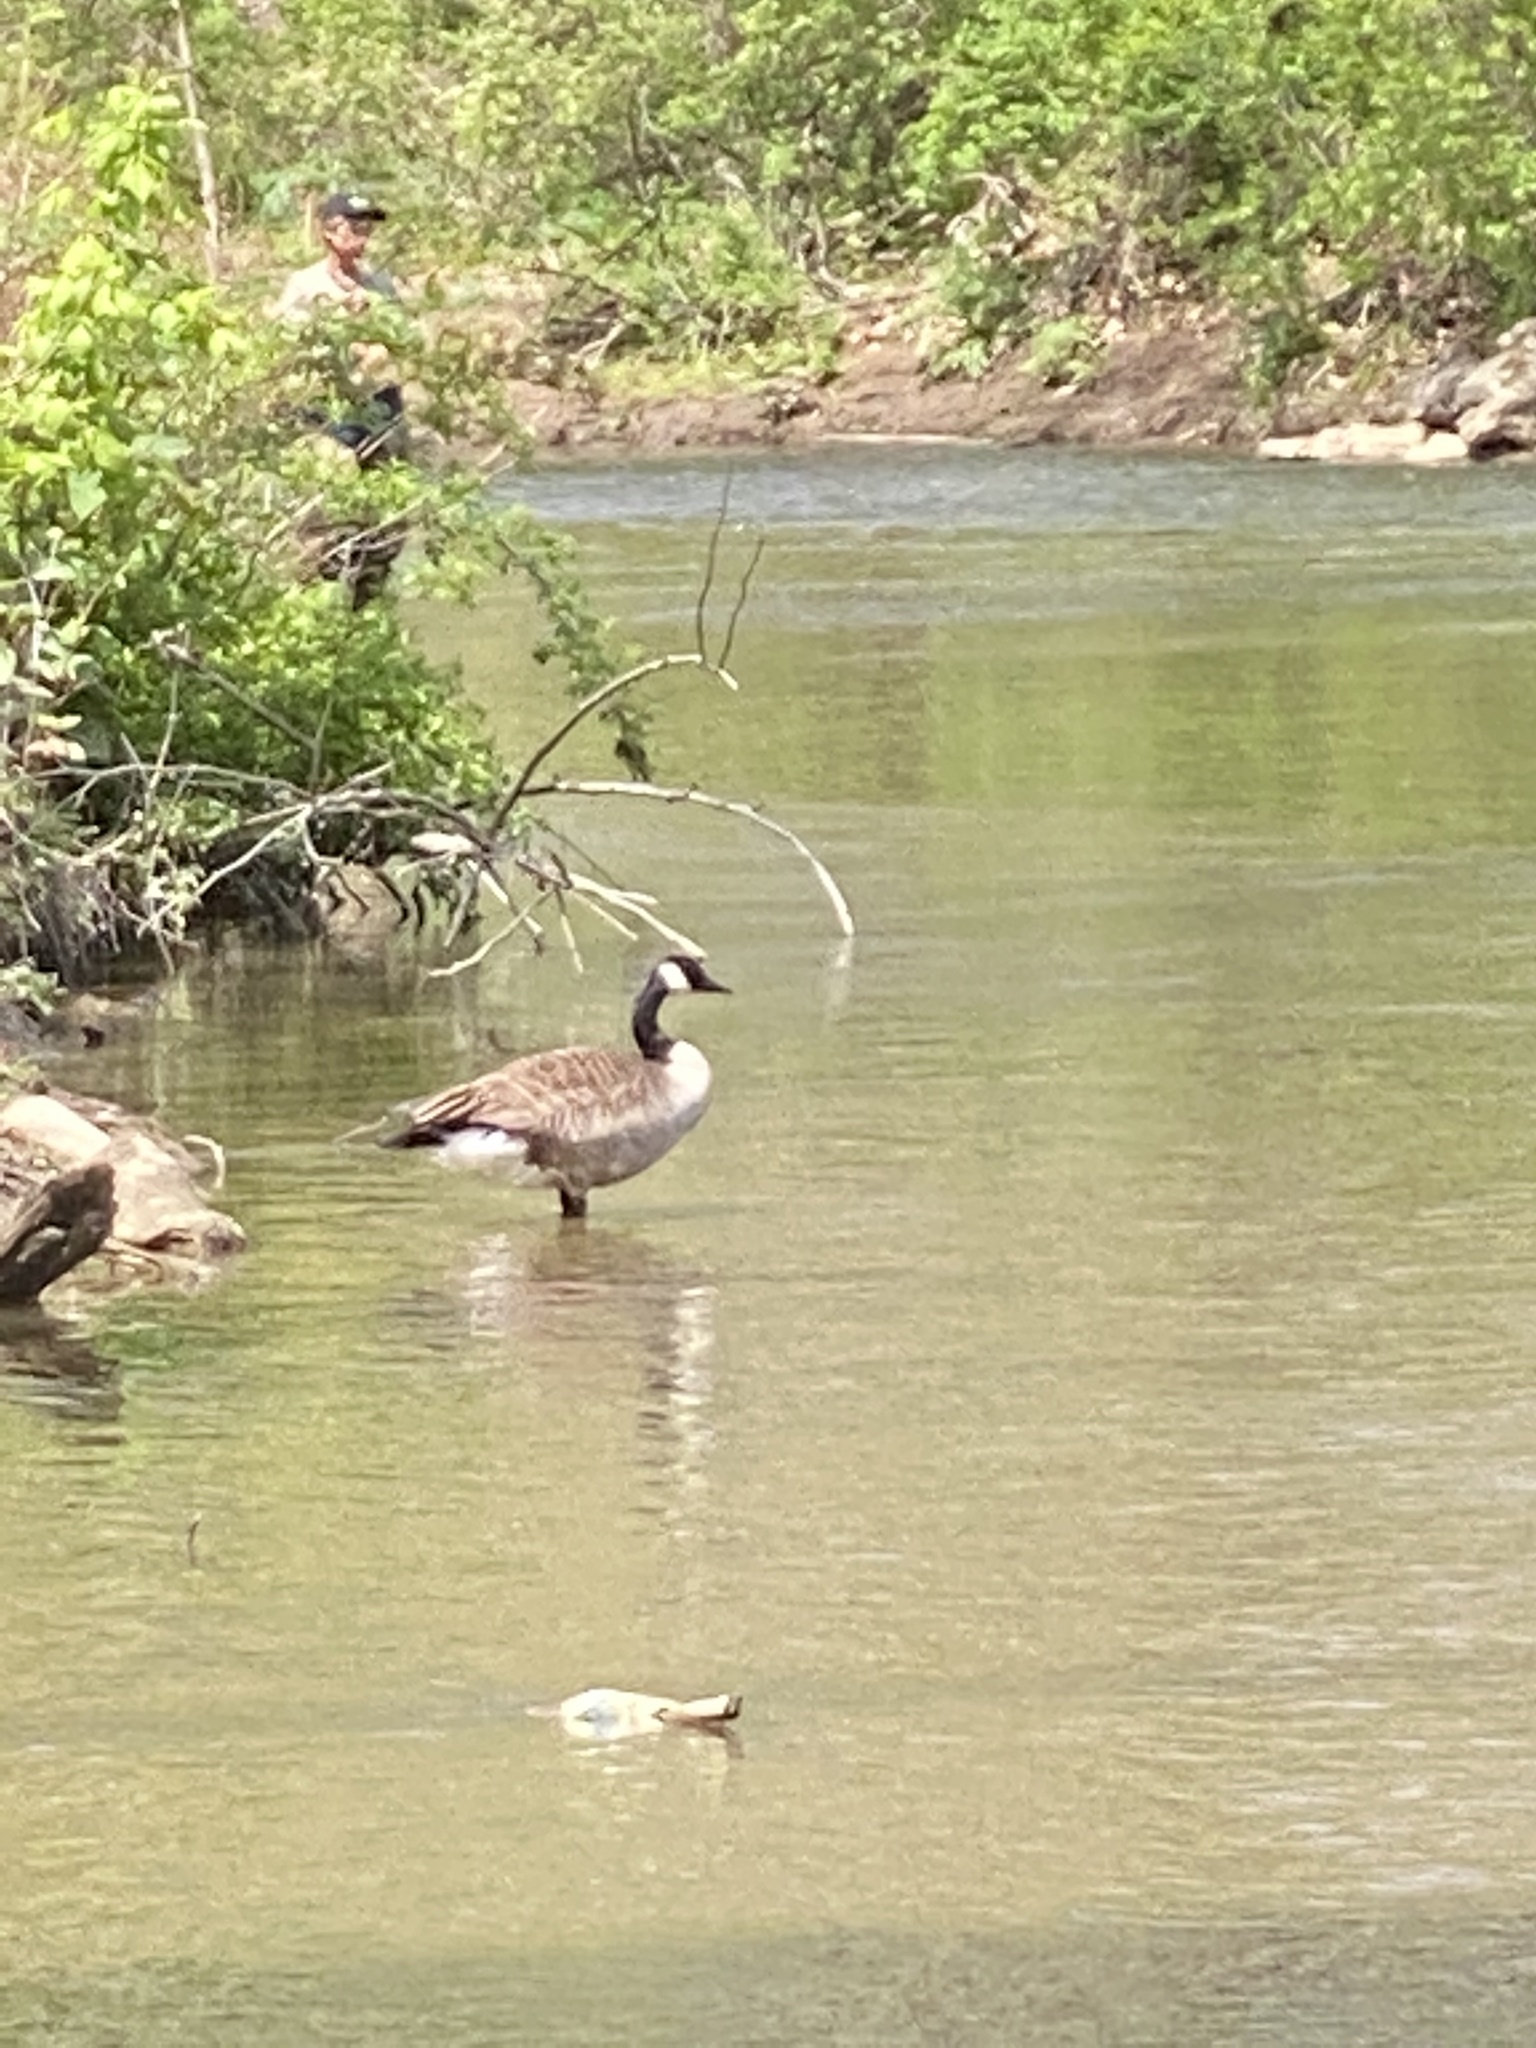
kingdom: Animalia
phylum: Chordata
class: Aves
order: Anseriformes
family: Anatidae
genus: Branta
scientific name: Branta canadensis
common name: Canada goose
